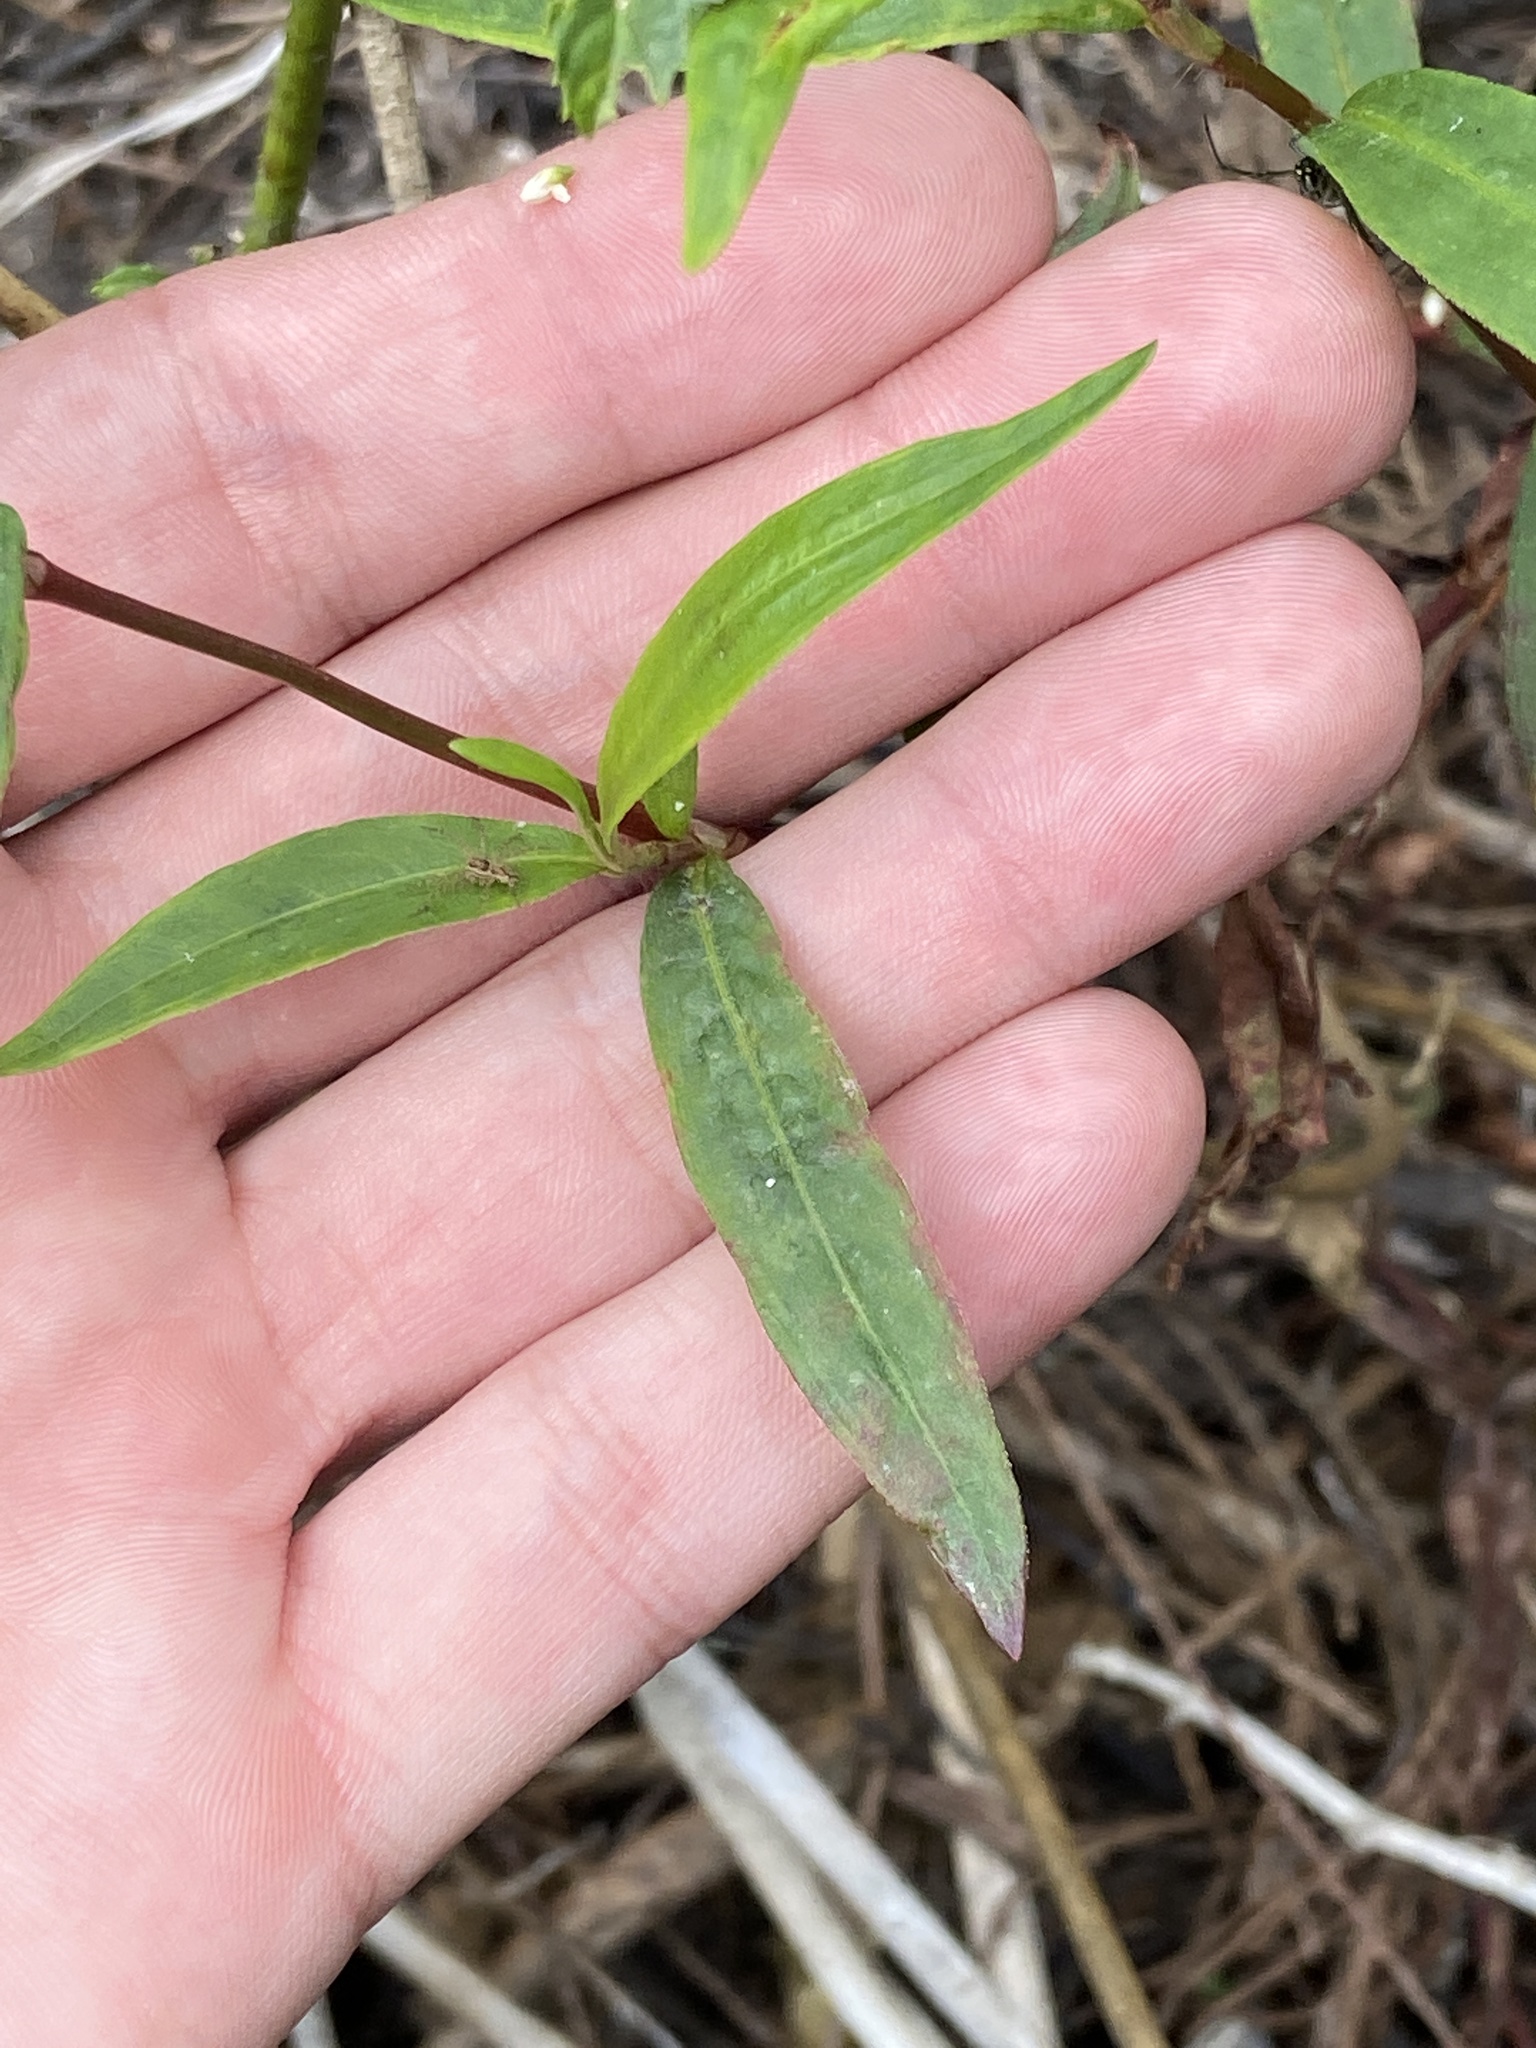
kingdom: Plantae
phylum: Tracheophyta
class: Magnoliopsida
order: Caryophyllales
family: Polygonaceae
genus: Persicaria
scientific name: Persicaria hydropiperoides
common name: Swamp smartweed
